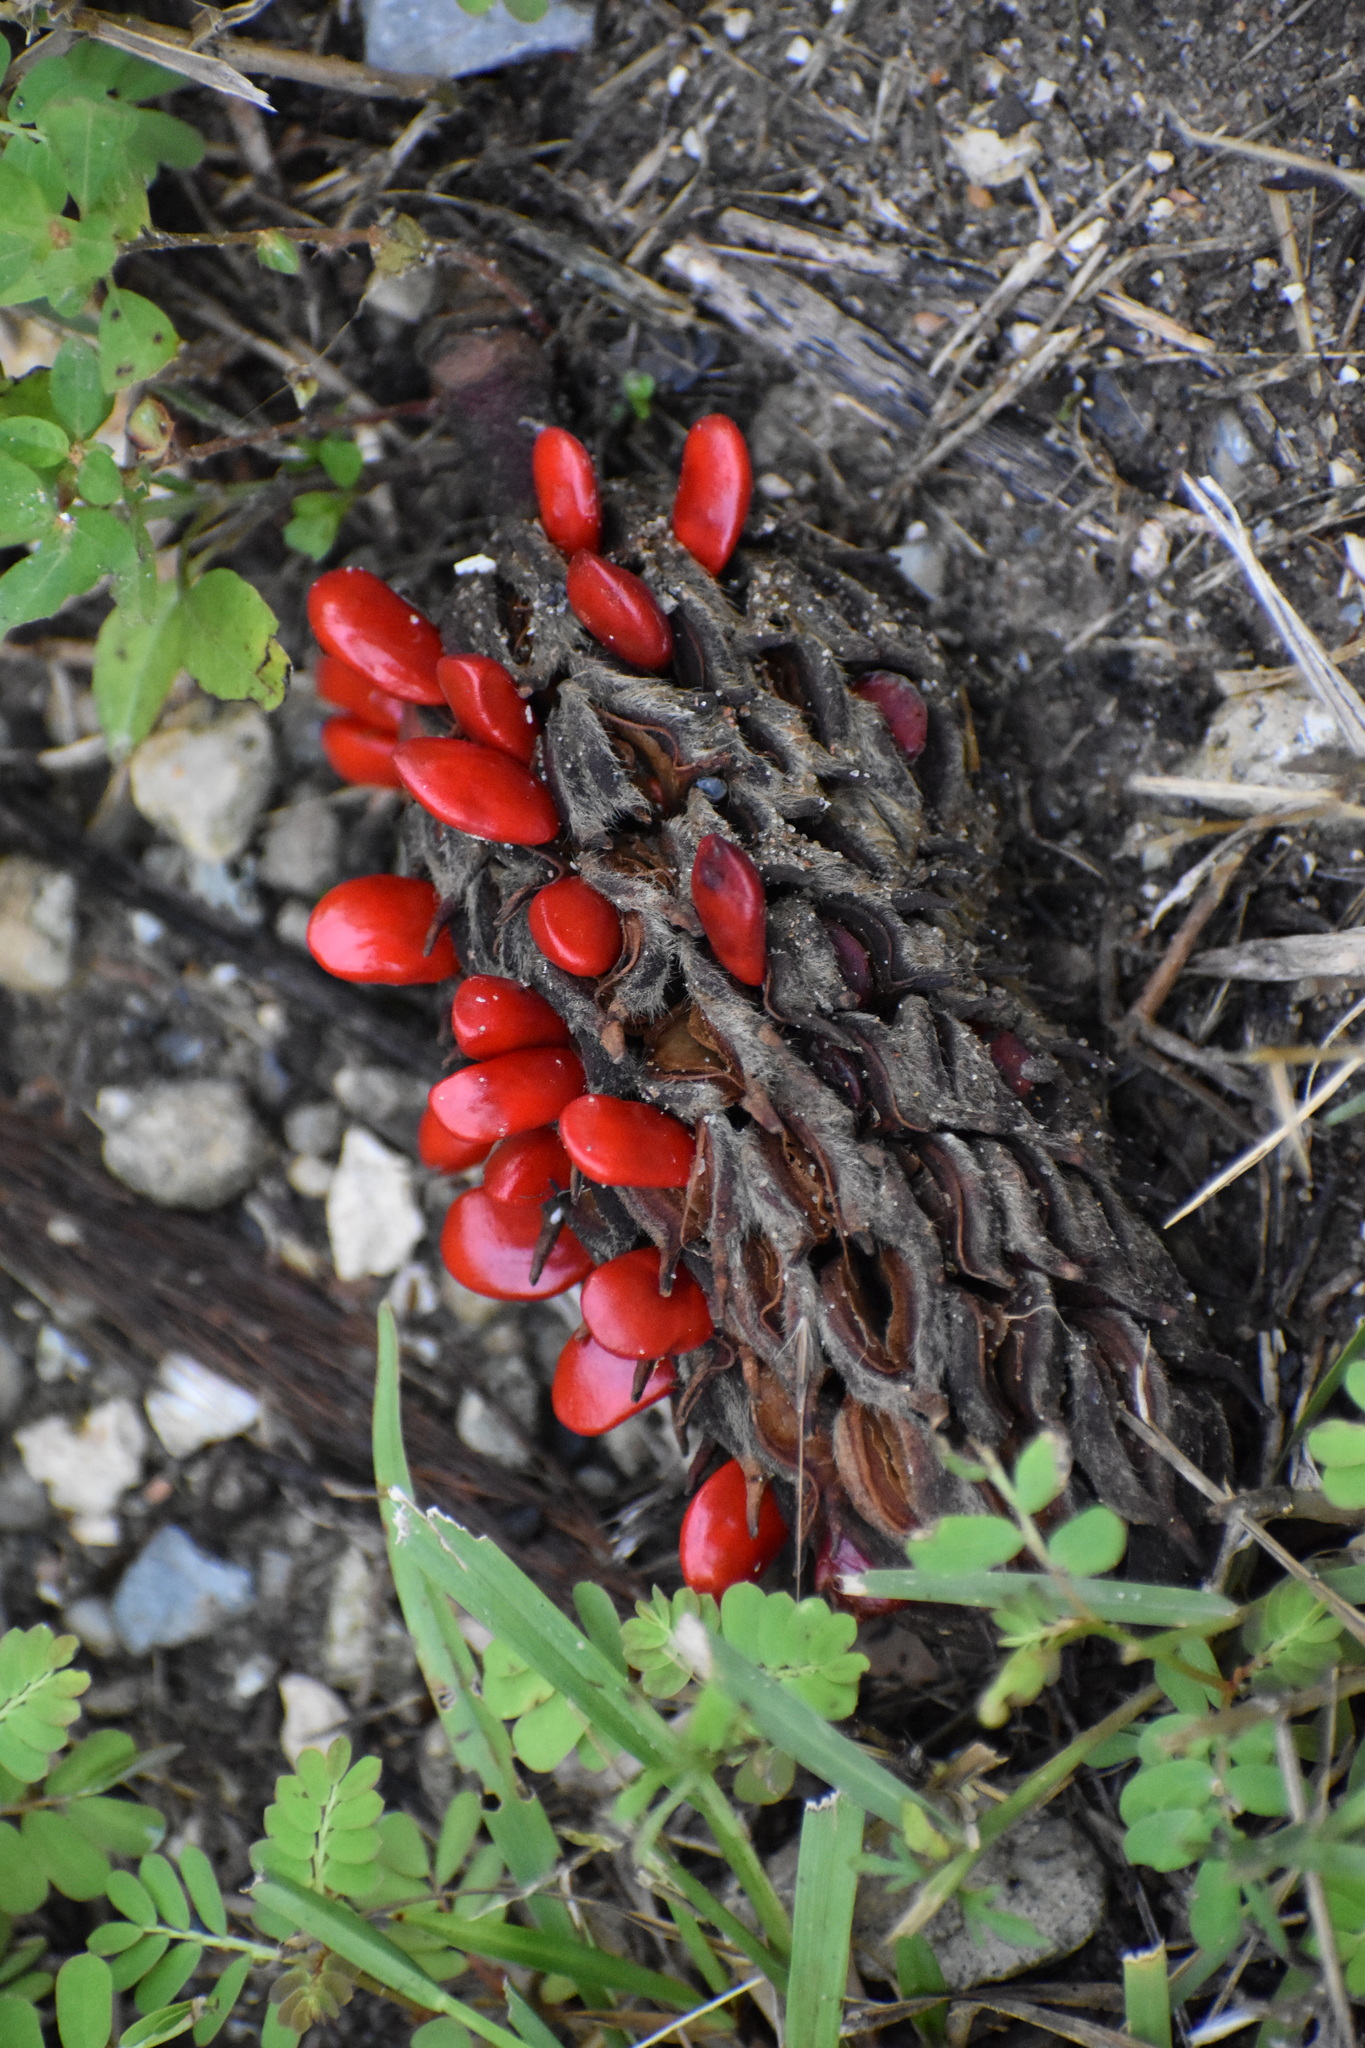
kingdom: Plantae
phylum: Tracheophyta
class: Magnoliopsida
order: Magnoliales
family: Magnoliaceae
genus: Magnolia
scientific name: Magnolia grandiflora
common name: Southern magnolia
